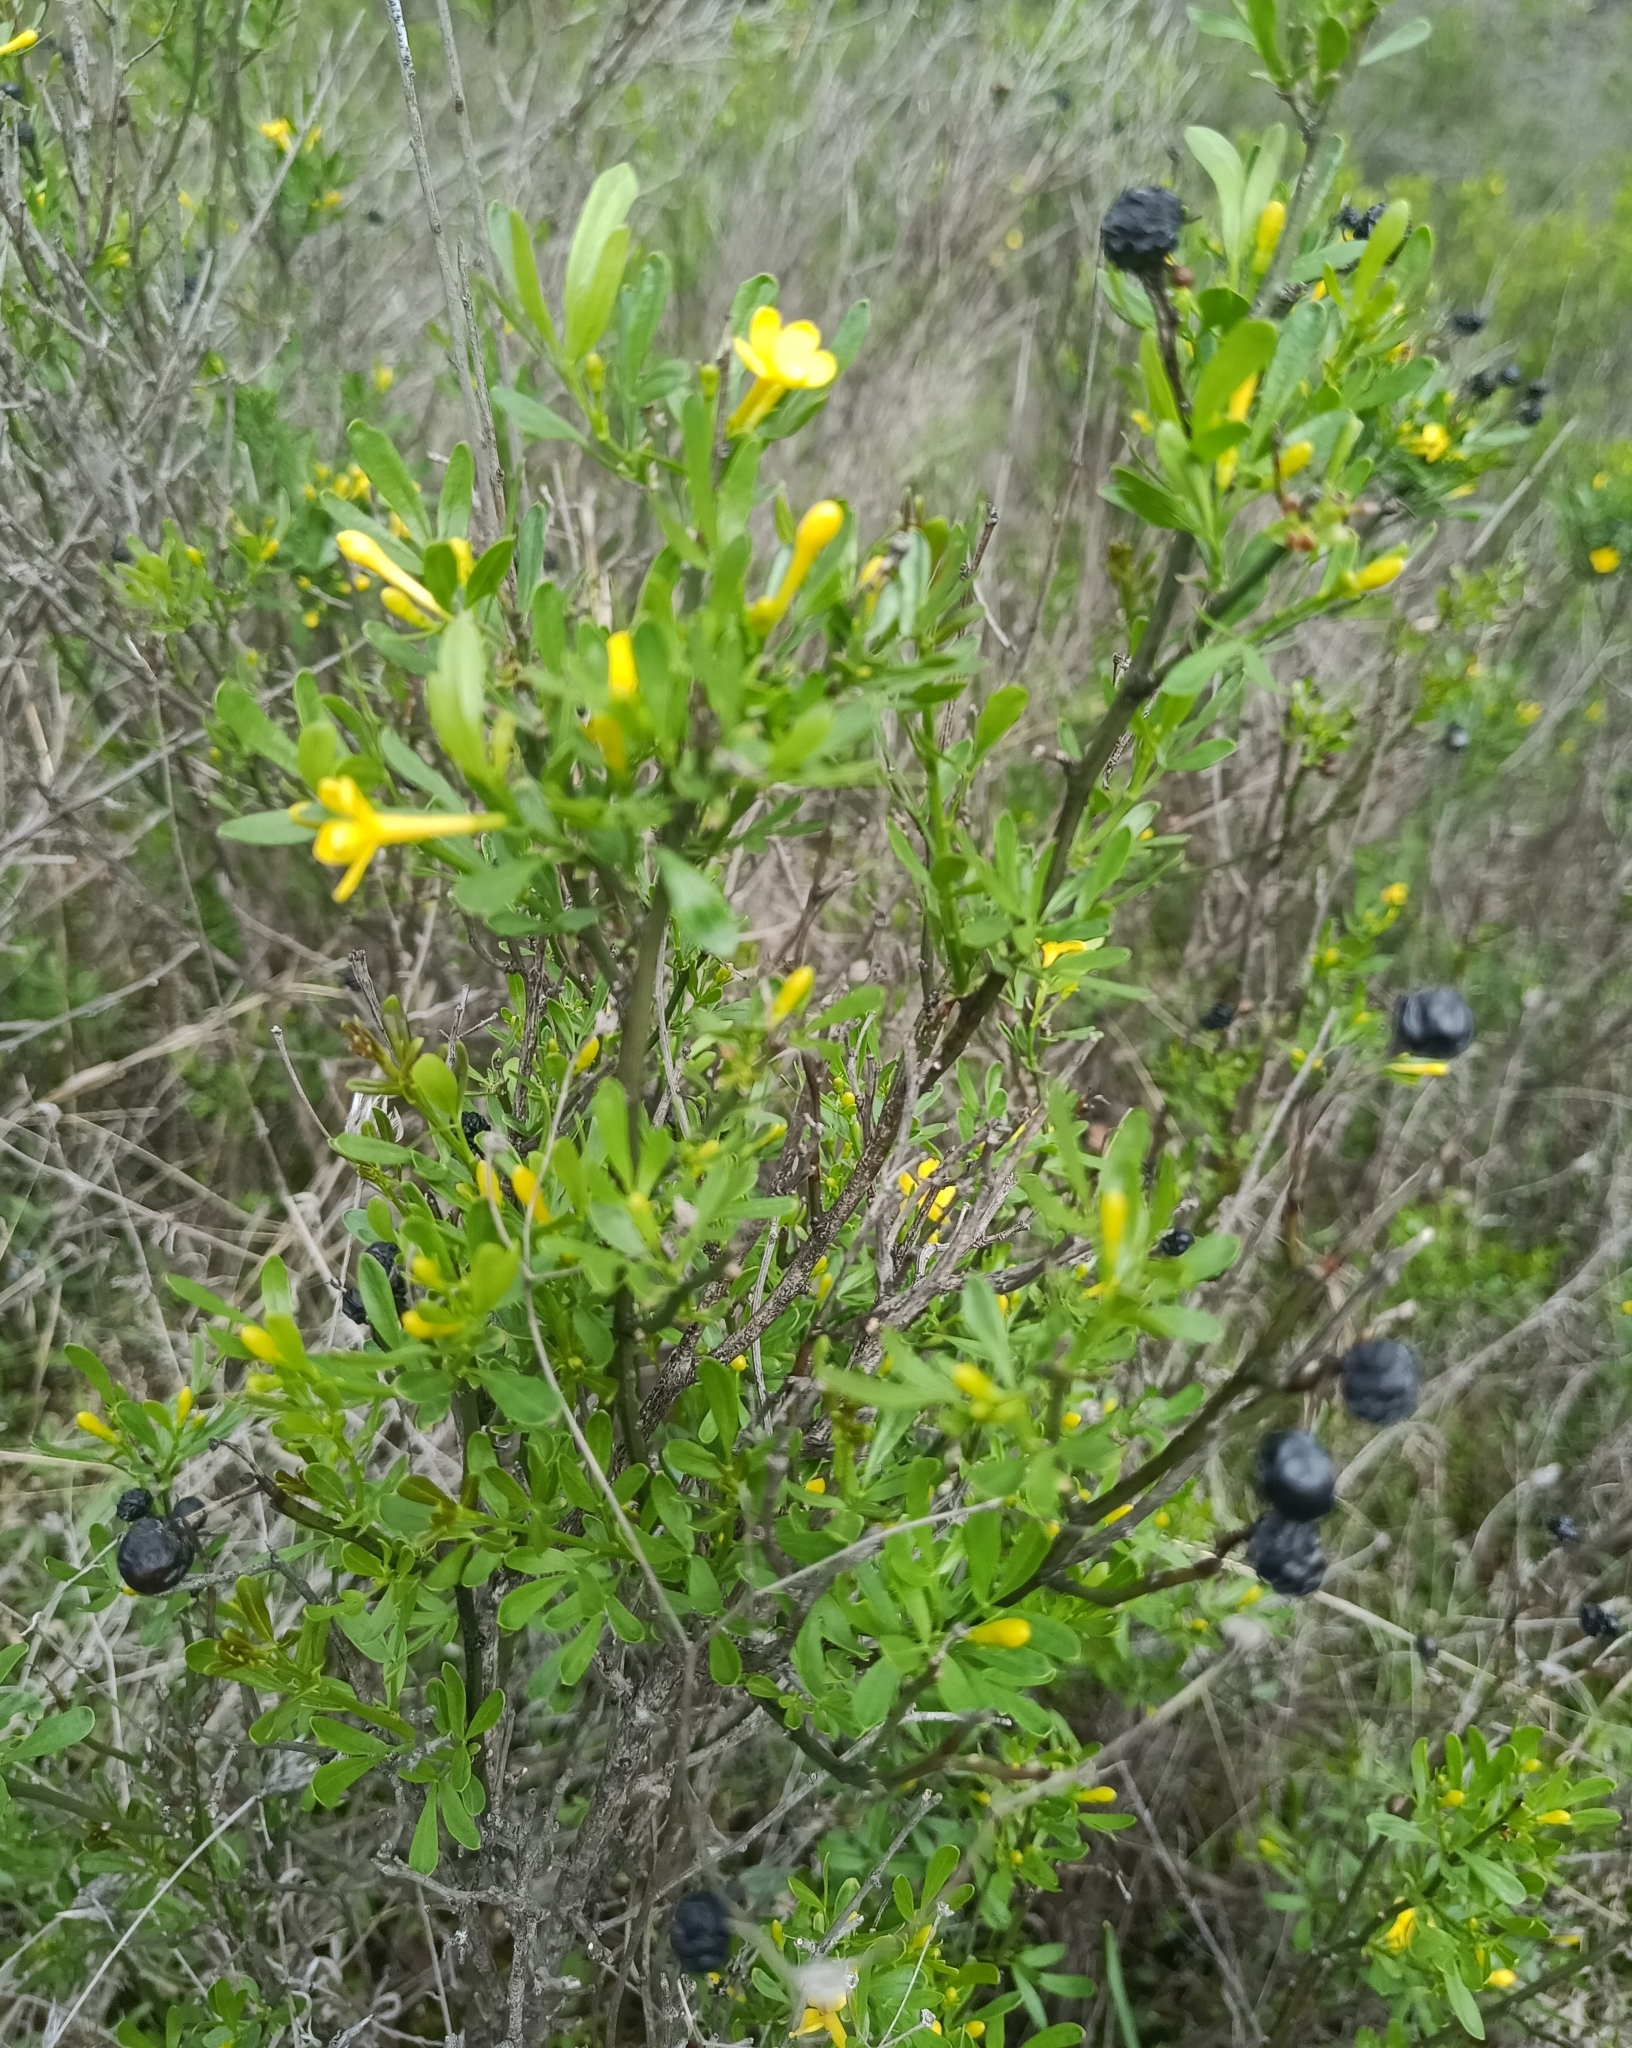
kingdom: Plantae
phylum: Tracheophyta
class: Magnoliopsida
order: Lamiales
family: Oleaceae
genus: Chrysojasminum
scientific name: Chrysojasminum fruticans
